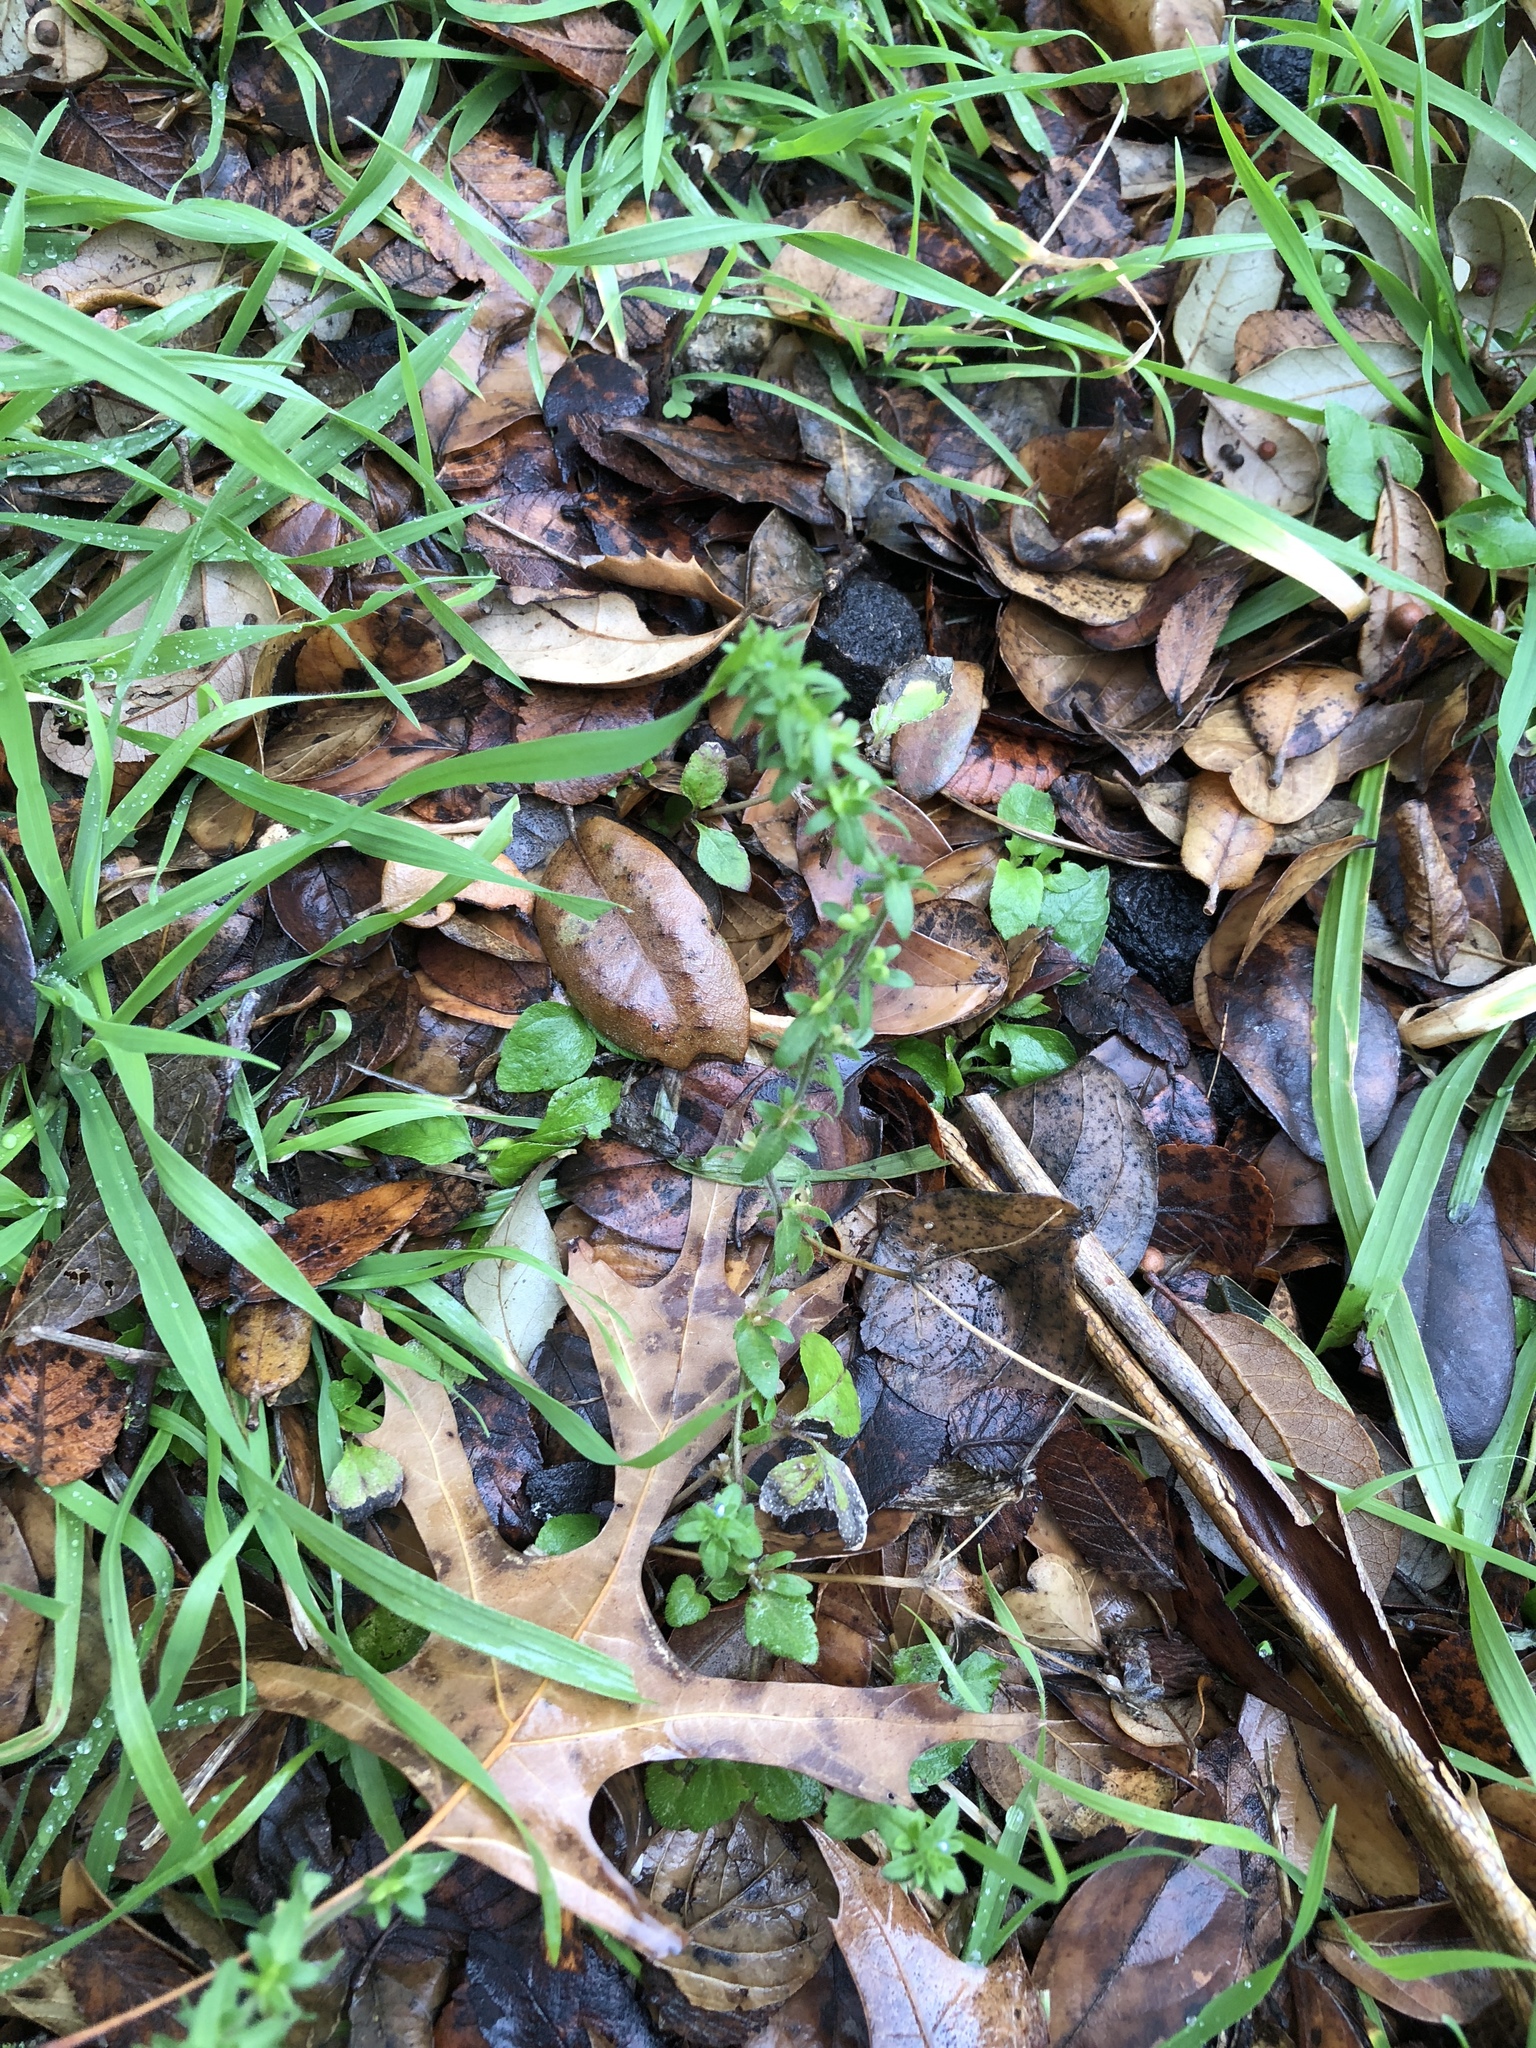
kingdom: Plantae
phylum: Tracheophyta
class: Magnoliopsida
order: Lamiales
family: Plantaginaceae
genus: Veronica
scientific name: Veronica arvensis
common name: Corn speedwell
